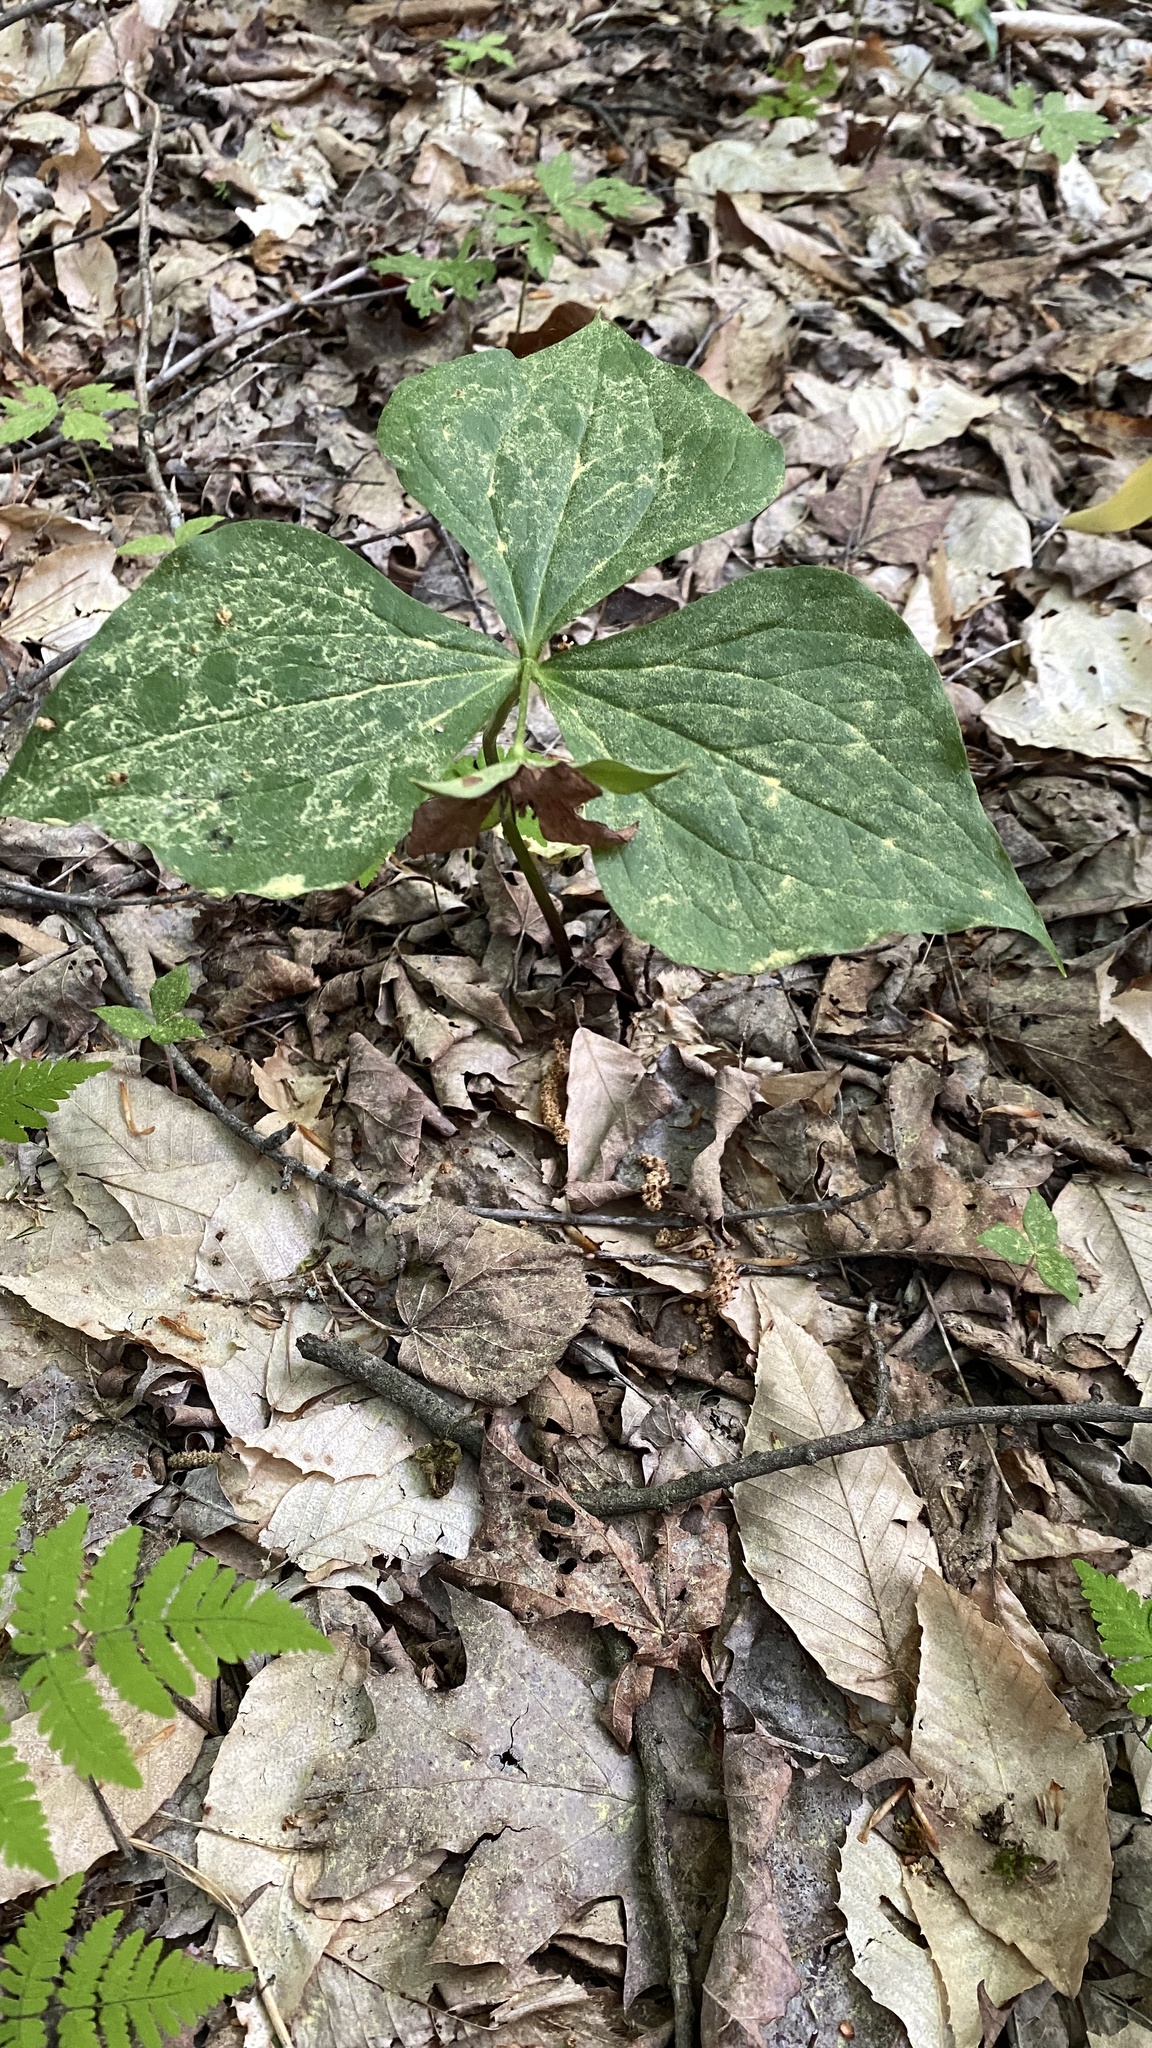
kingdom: Plantae
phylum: Tracheophyta
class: Liliopsida
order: Liliales
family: Melanthiaceae
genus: Trillium
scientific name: Trillium erectum
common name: Purple trillium
